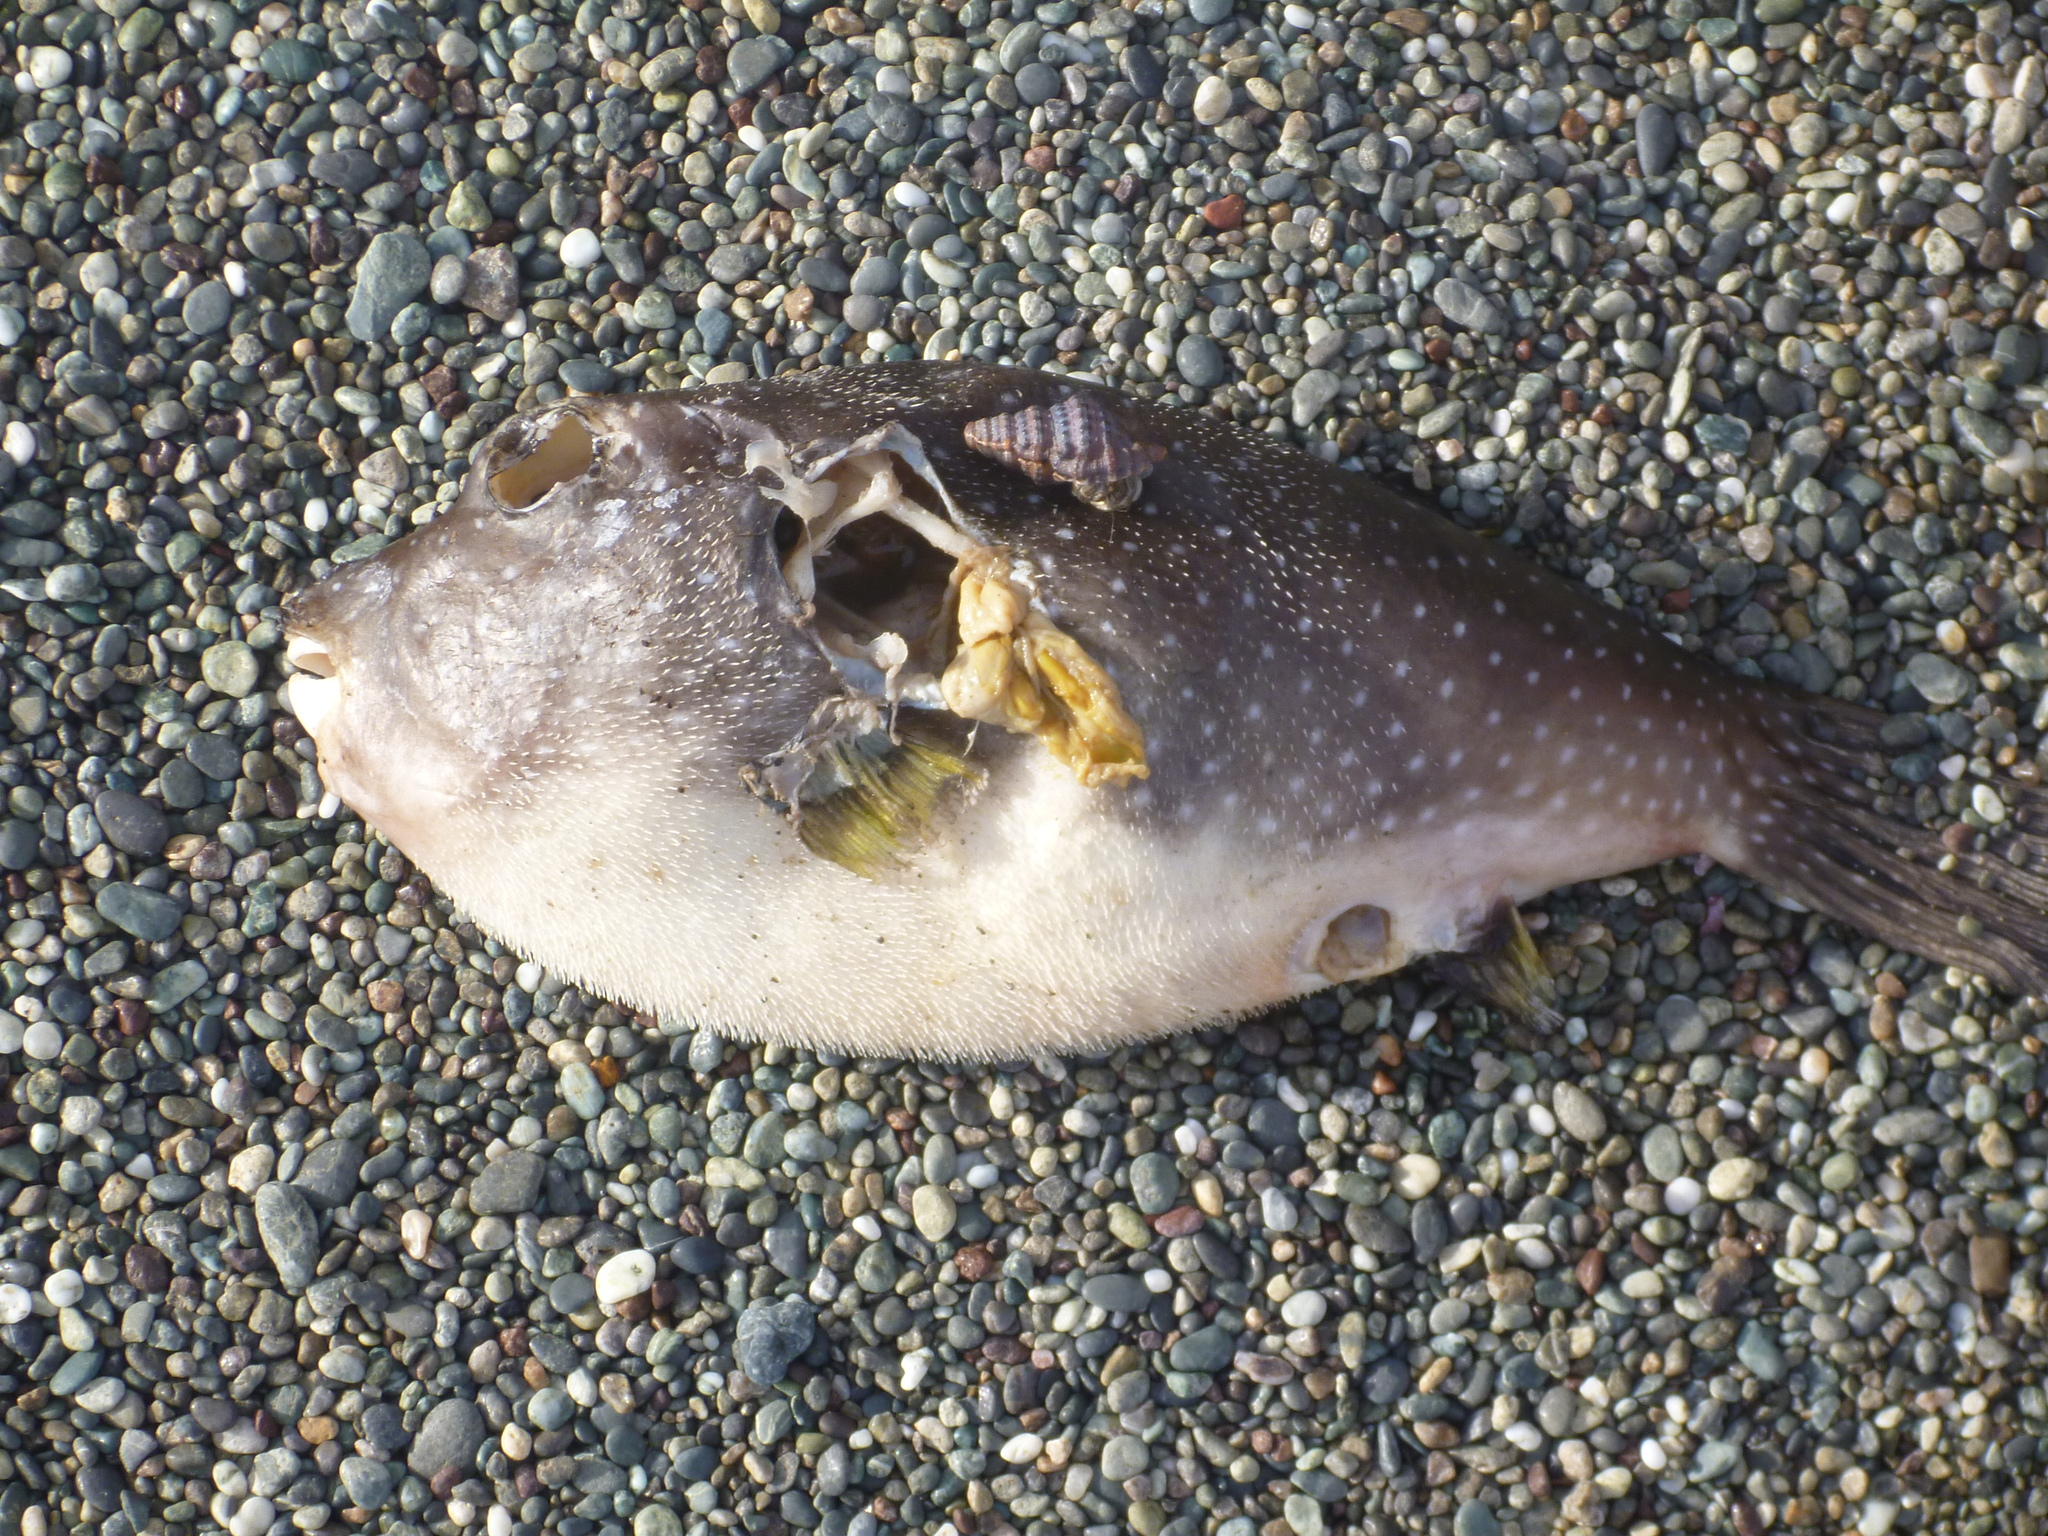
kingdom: Animalia
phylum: Chordata
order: Tetraodontiformes
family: Tetraodontidae
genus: Arothron
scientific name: Arothron hispidus
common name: Stripebelly puffer
